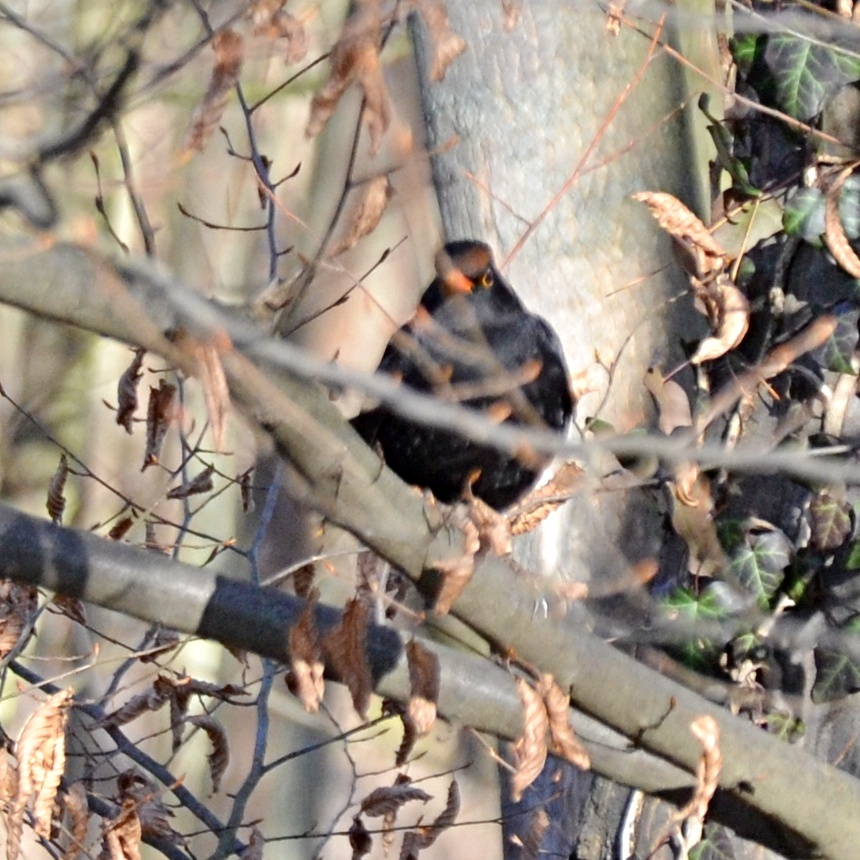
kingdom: Animalia
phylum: Chordata
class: Aves
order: Passeriformes
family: Turdidae
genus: Turdus
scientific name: Turdus merula
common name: Common blackbird
